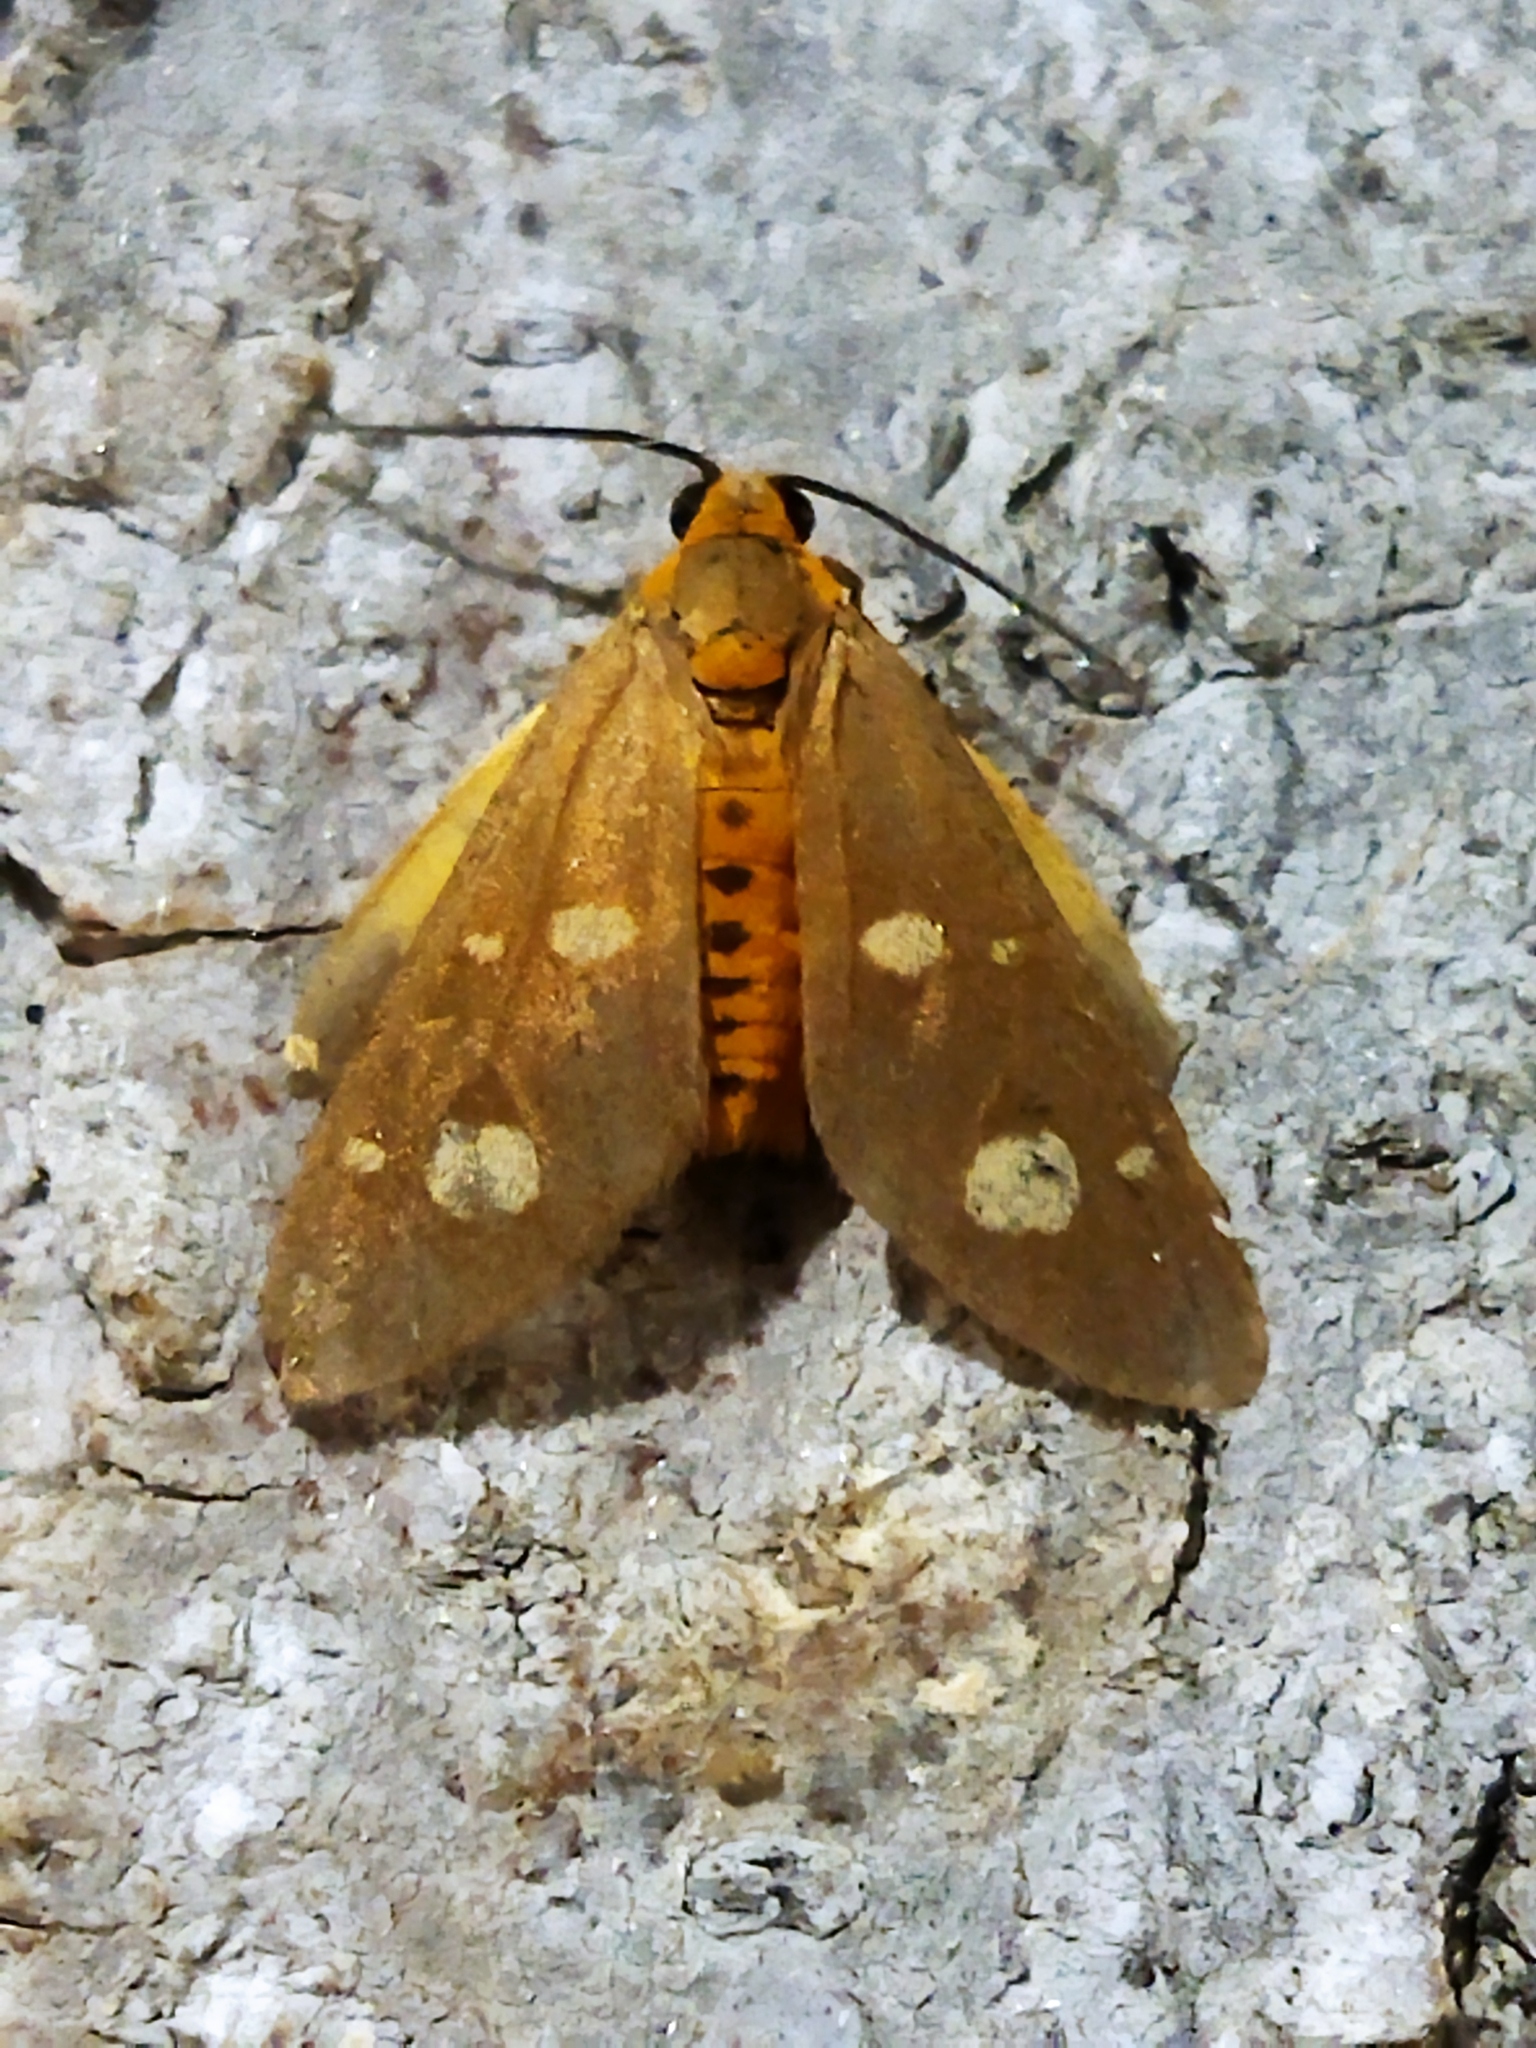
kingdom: Animalia
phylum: Arthropoda
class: Insecta
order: Lepidoptera
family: Erebidae
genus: Dysauxes
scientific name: Dysauxes punctata
